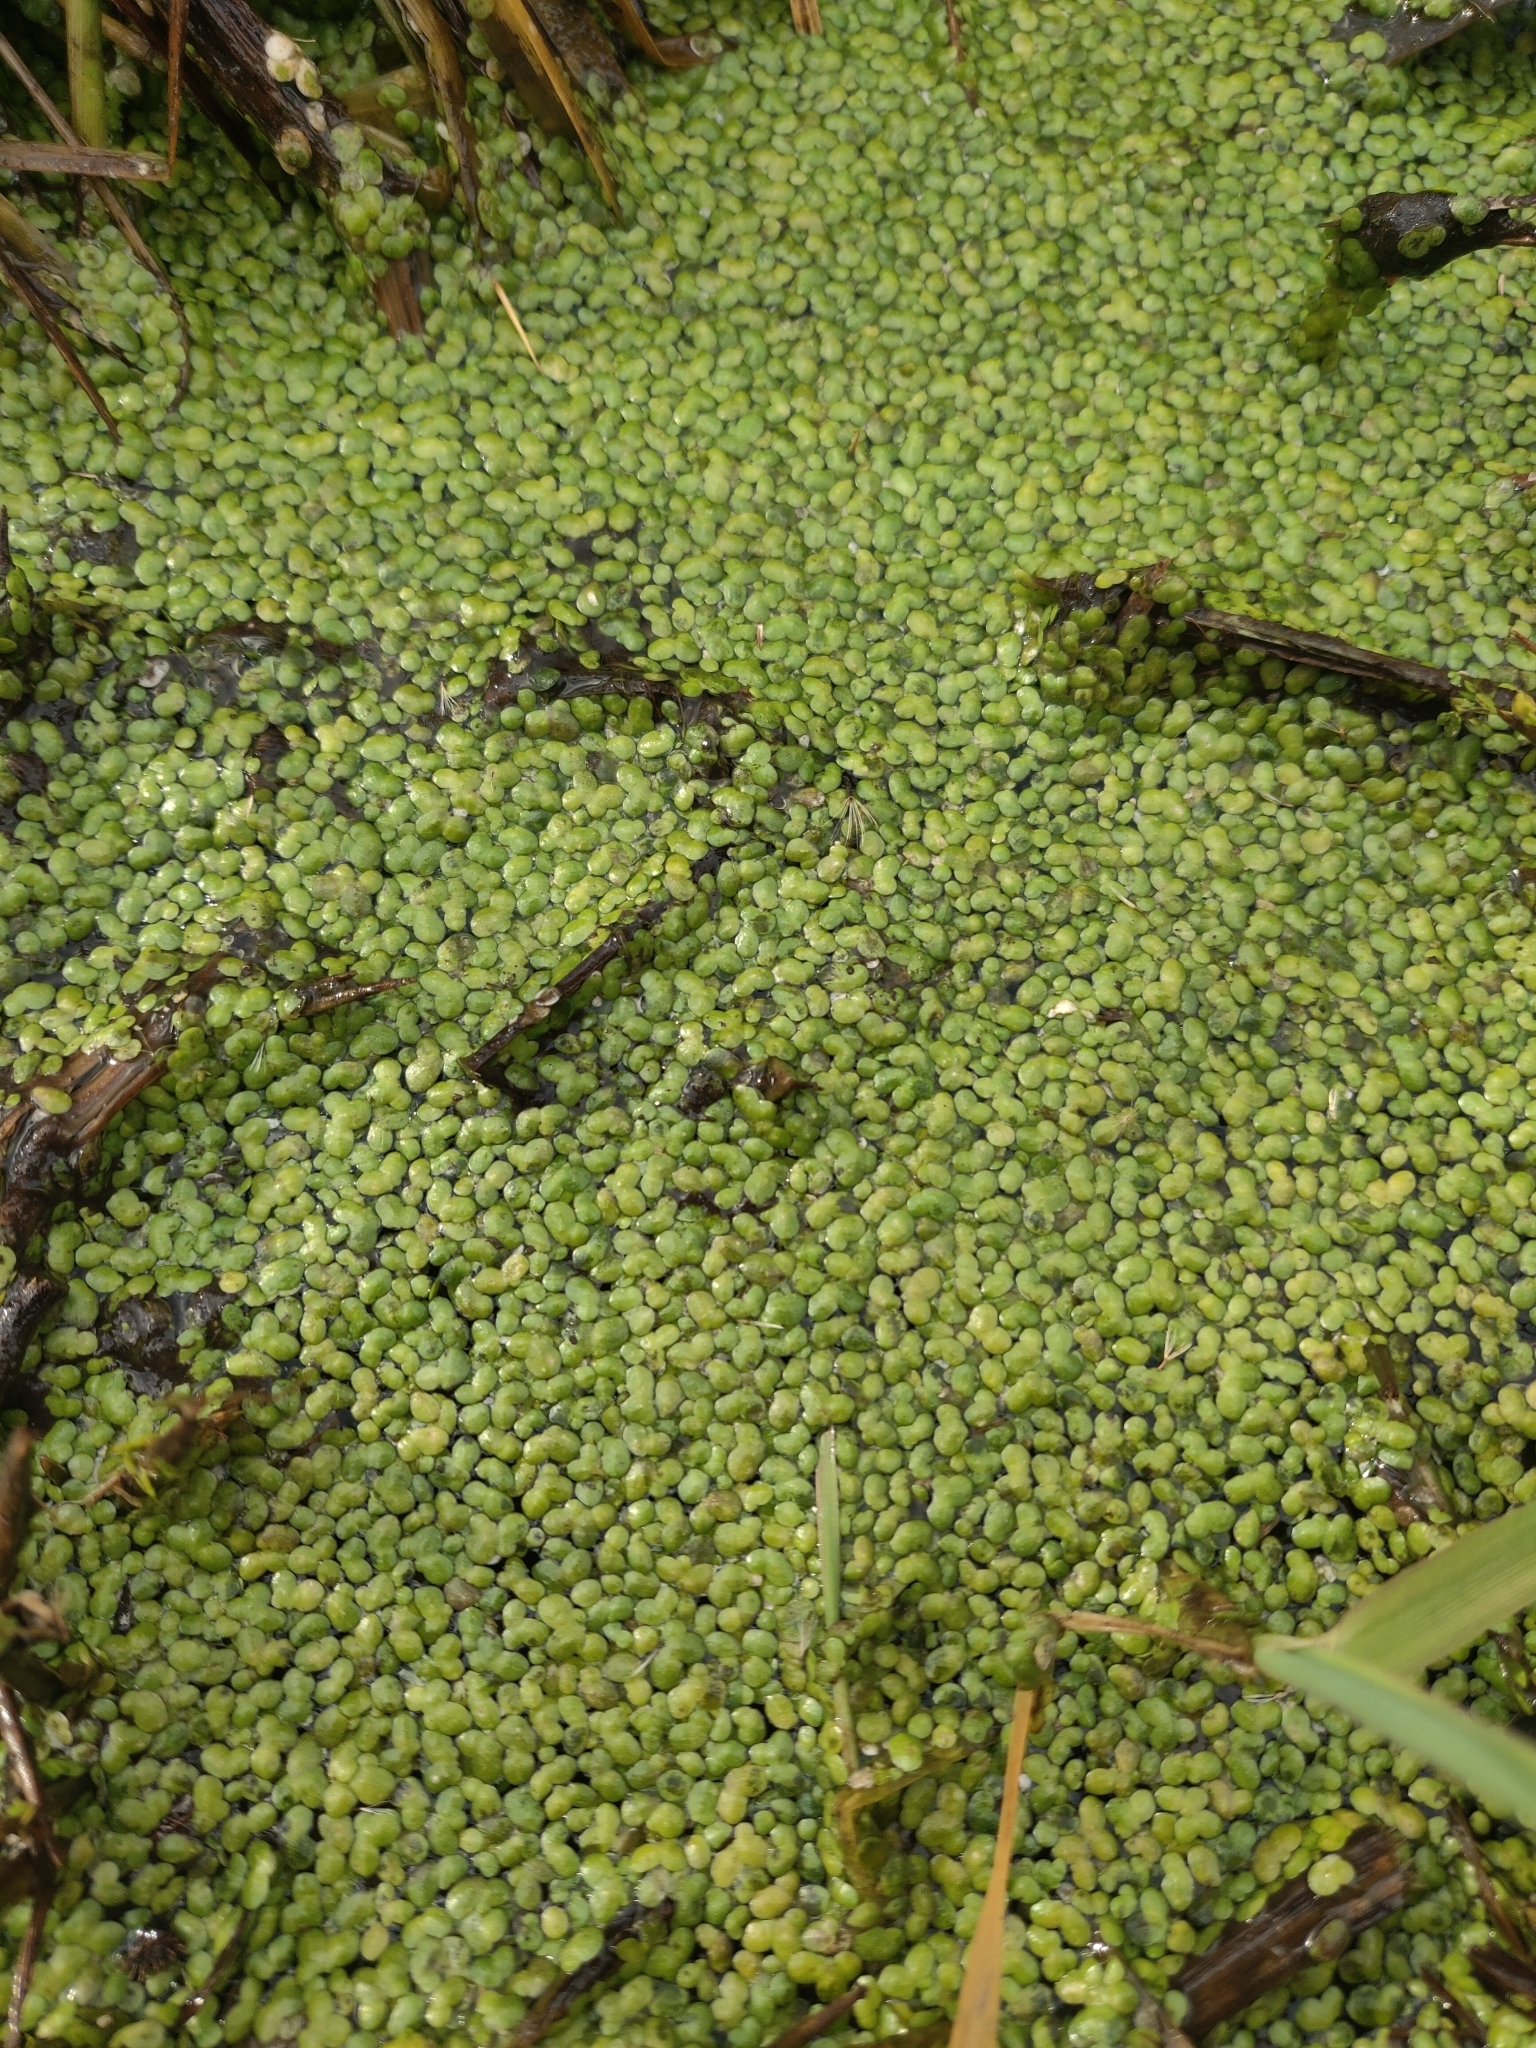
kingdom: Plantae
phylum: Tracheophyta
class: Liliopsida
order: Alismatales
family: Araceae
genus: Lemna
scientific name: Lemna minor
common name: Common duckweed
